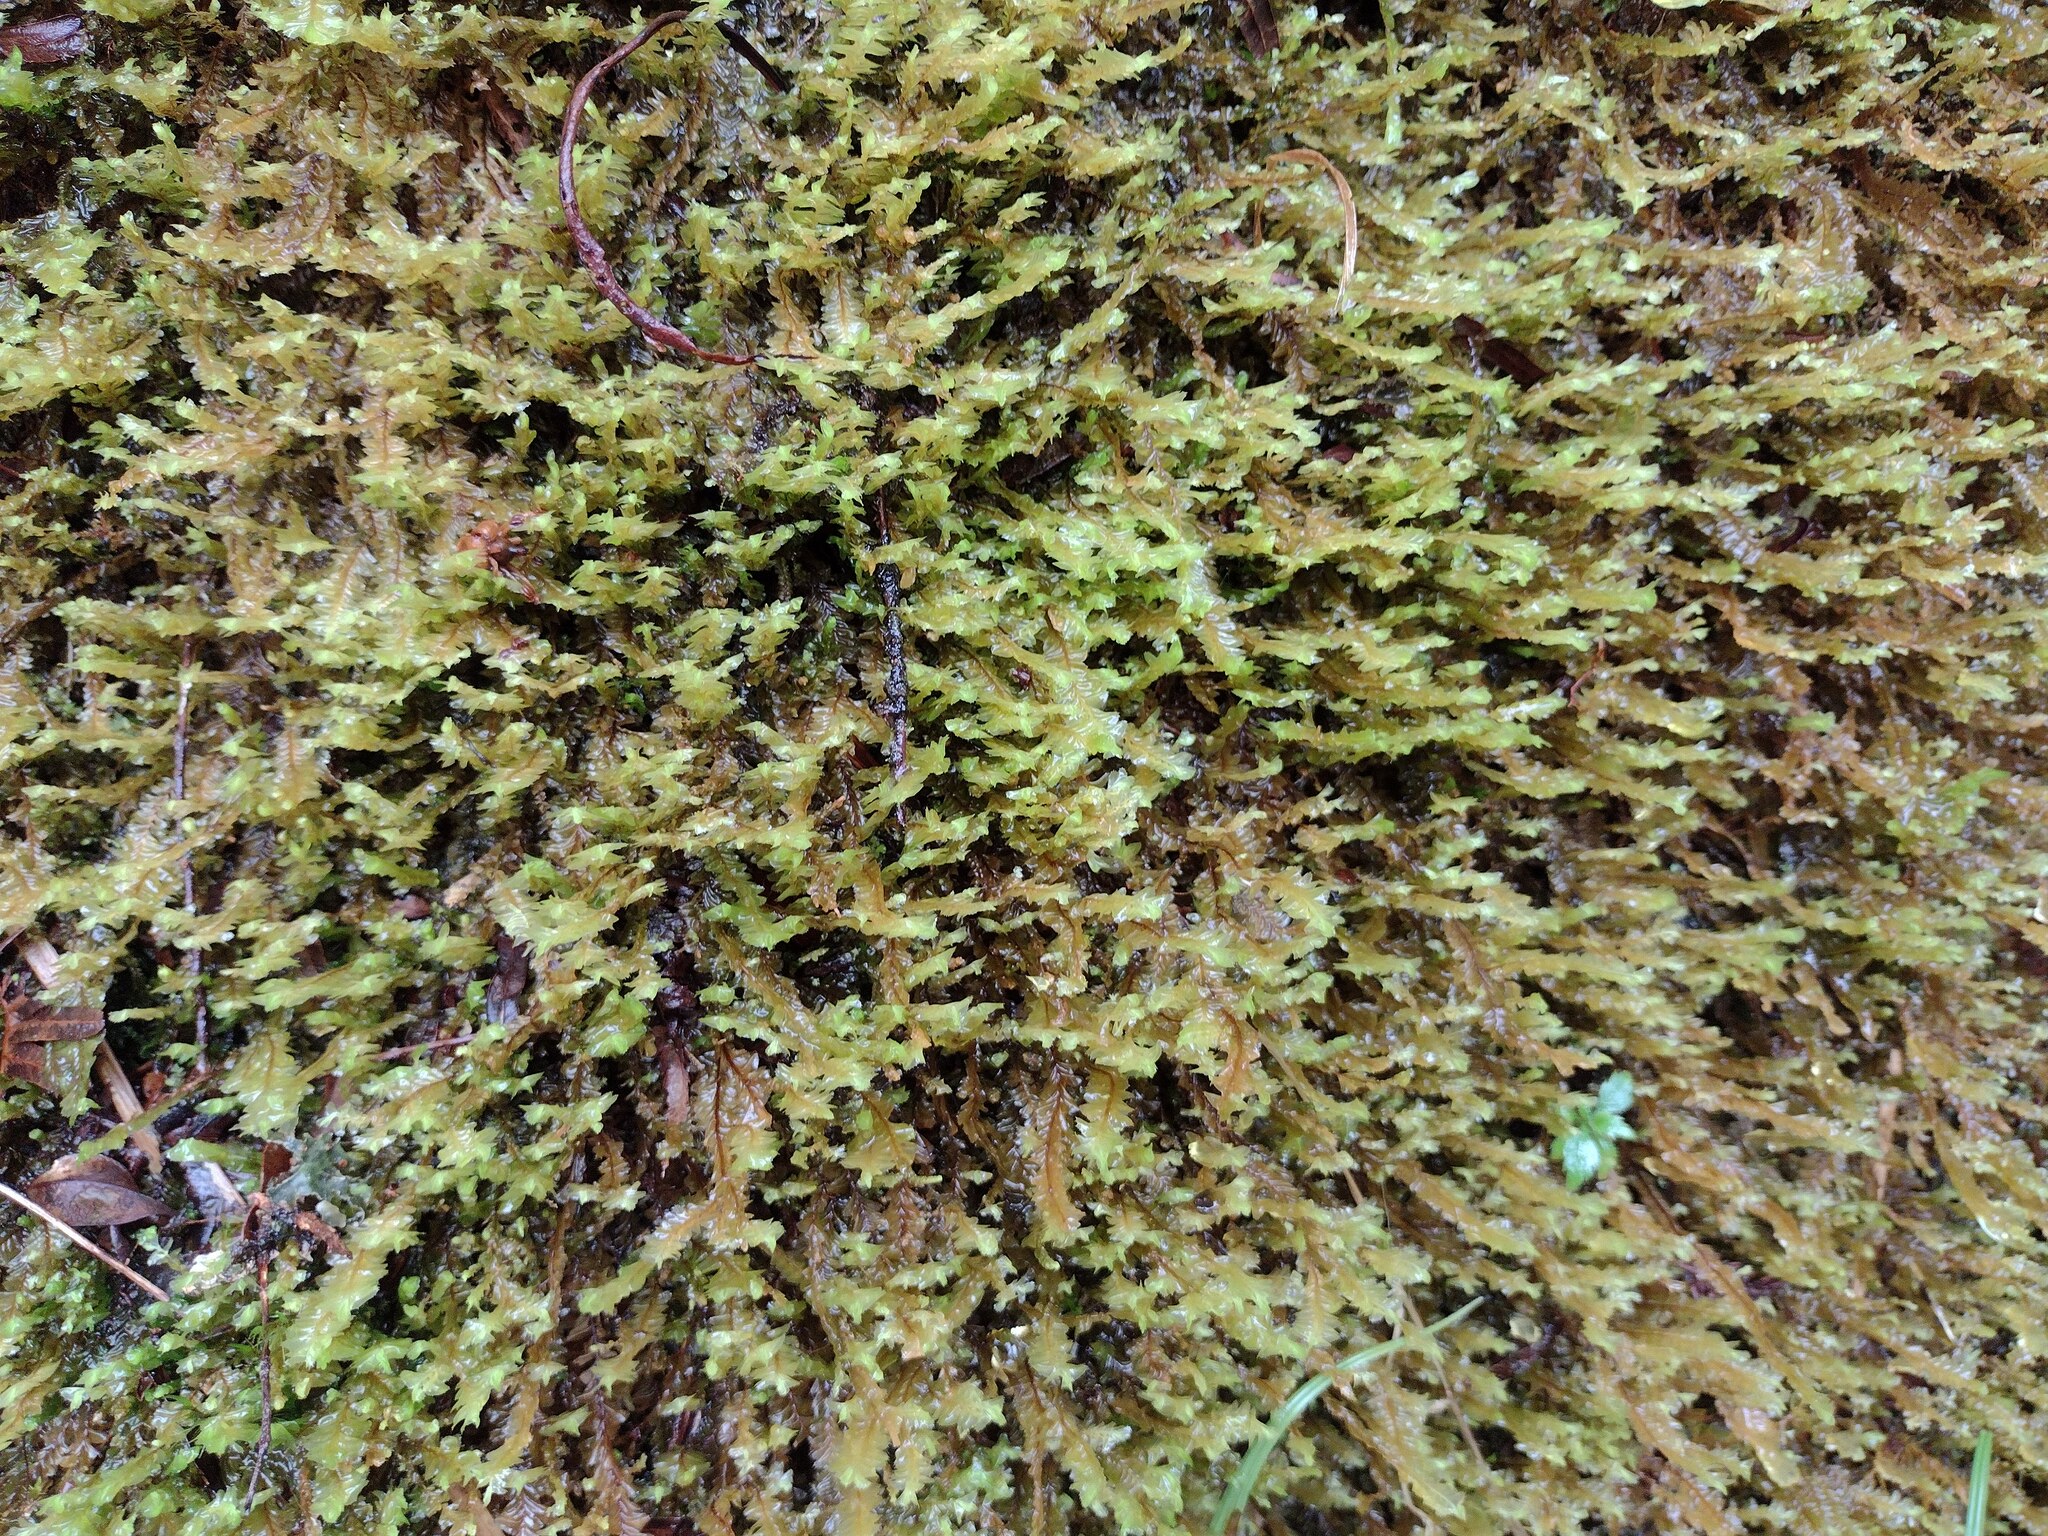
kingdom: Plantae
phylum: Marchantiophyta
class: Jungermanniopsida
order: Jungermanniales
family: Plagiochilaceae
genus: Plagiochila
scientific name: Plagiochila deflexa
